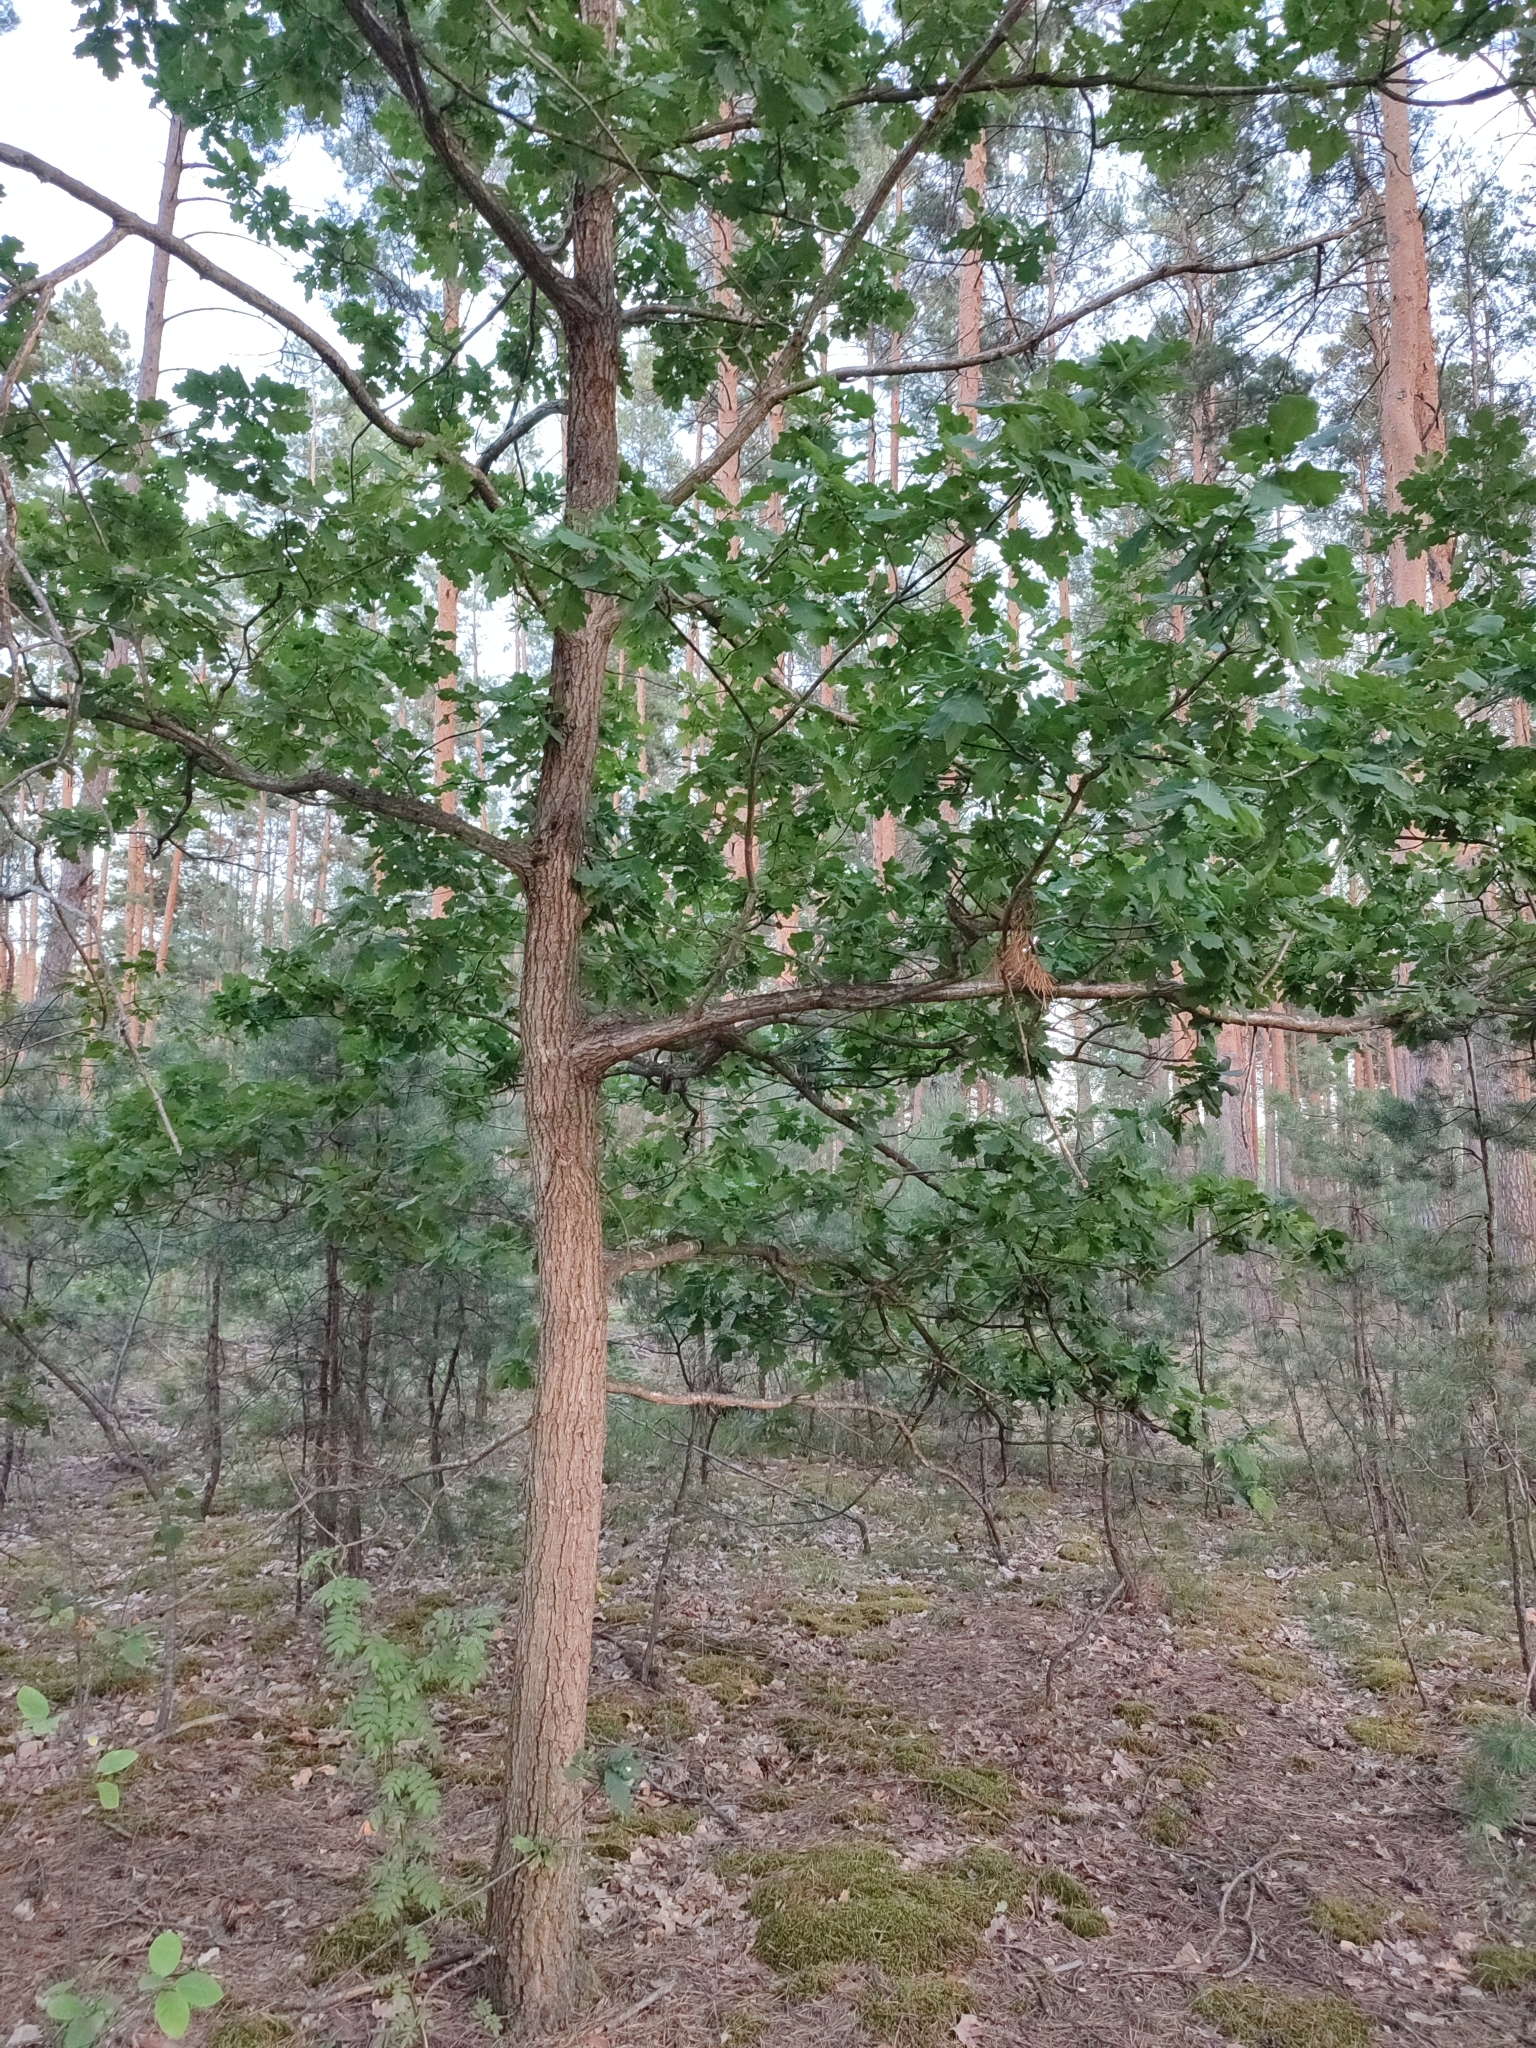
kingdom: Plantae
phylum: Tracheophyta
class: Magnoliopsida
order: Fagales
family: Fagaceae
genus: Quercus
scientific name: Quercus robur
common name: Pedunculate oak
